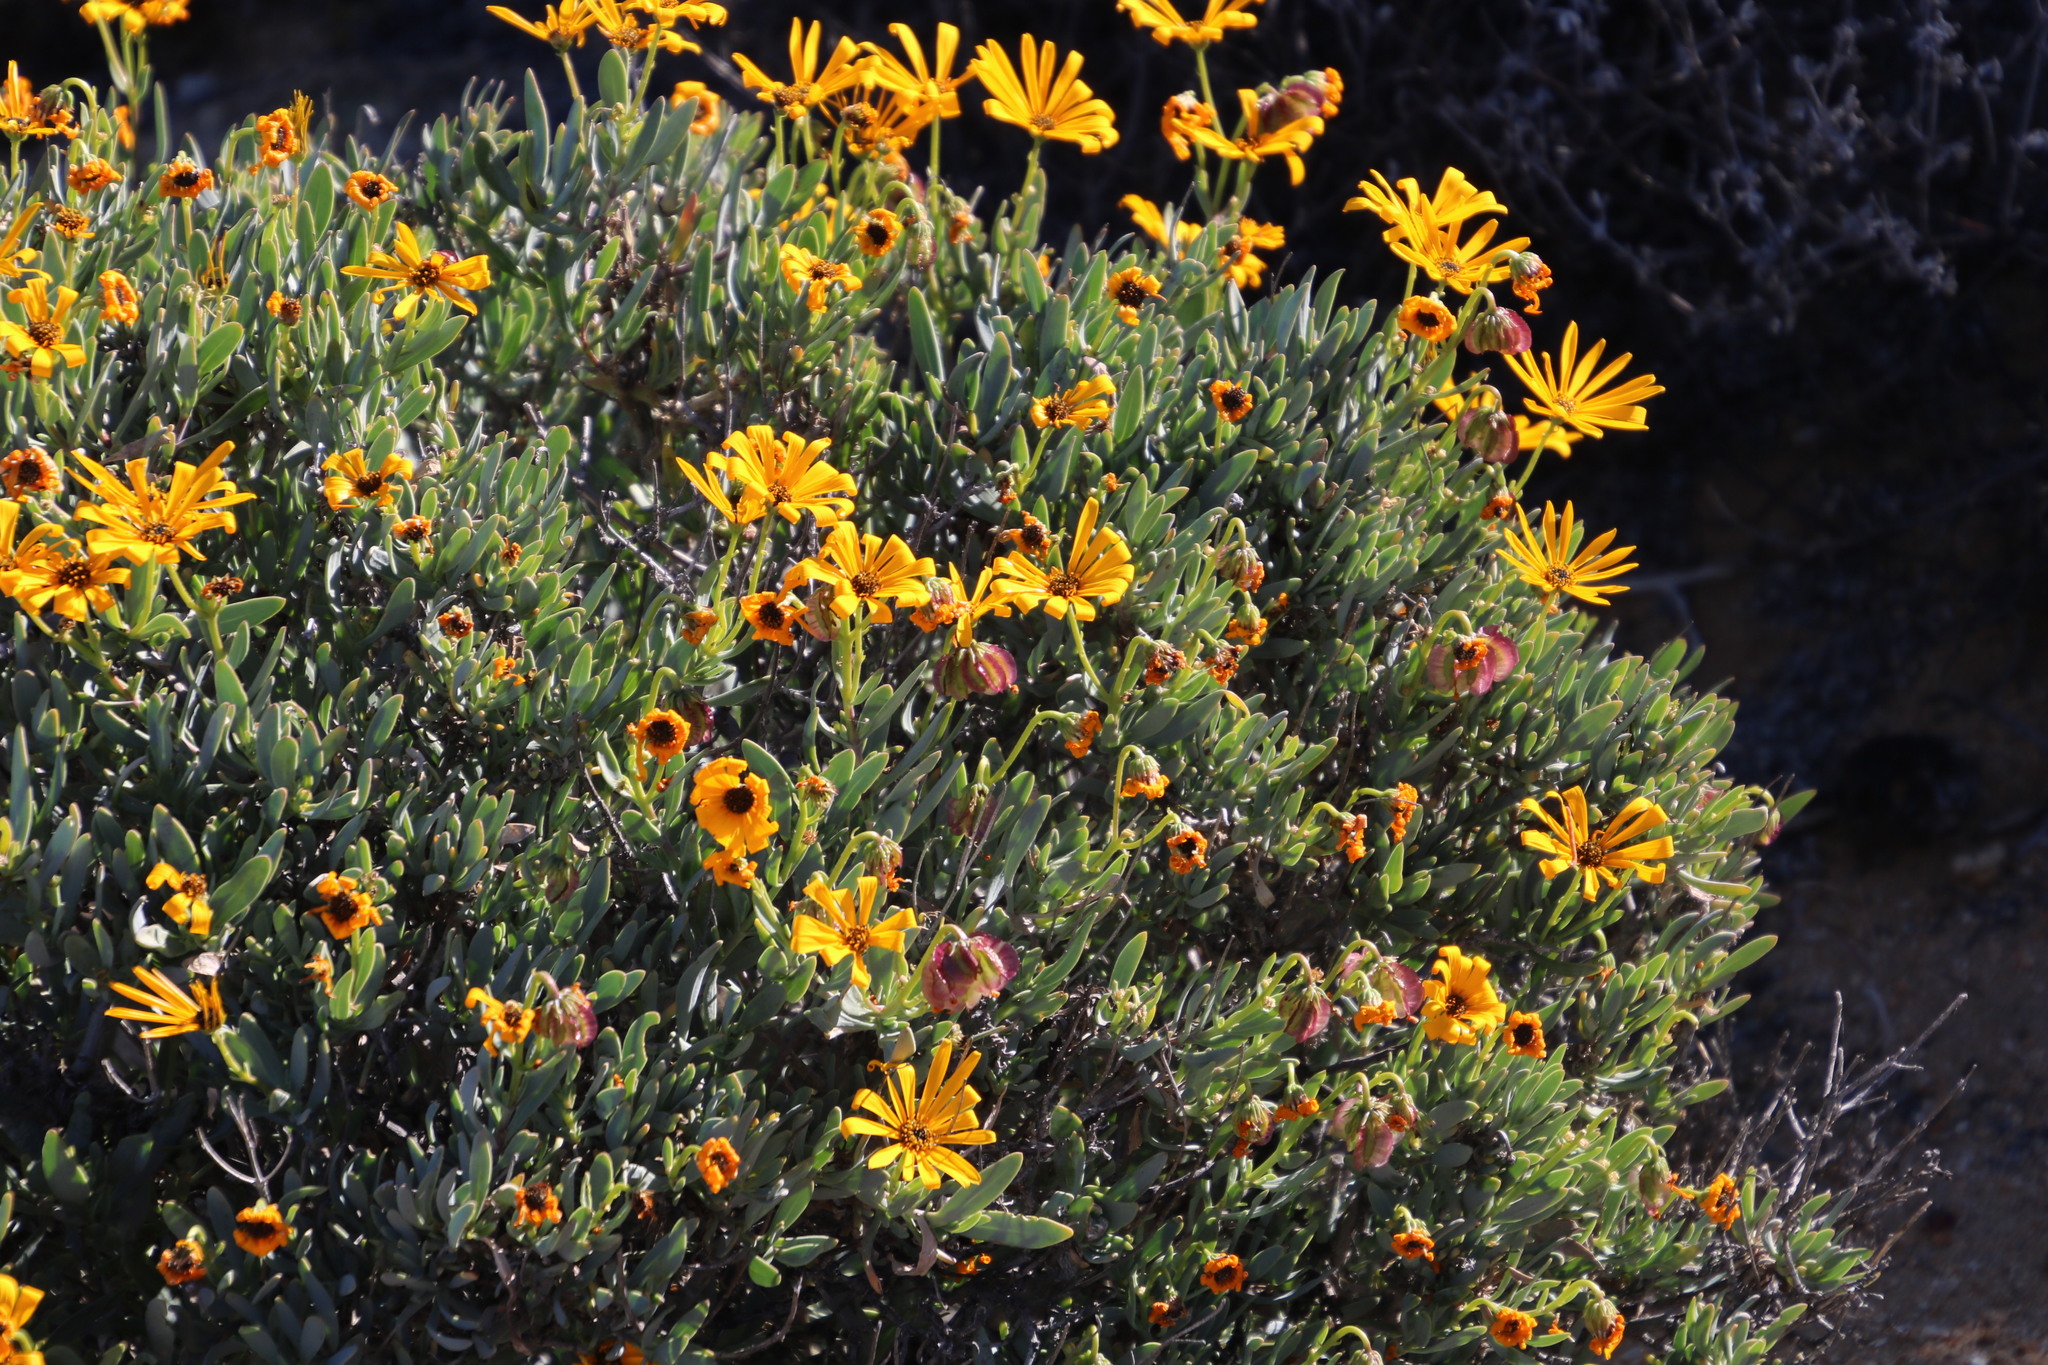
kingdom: Plantae
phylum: Tracheophyta
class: Magnoliopsida
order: Asterales
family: Asteraceae
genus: Osteospermum
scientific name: Osteospermum oppositifolium
